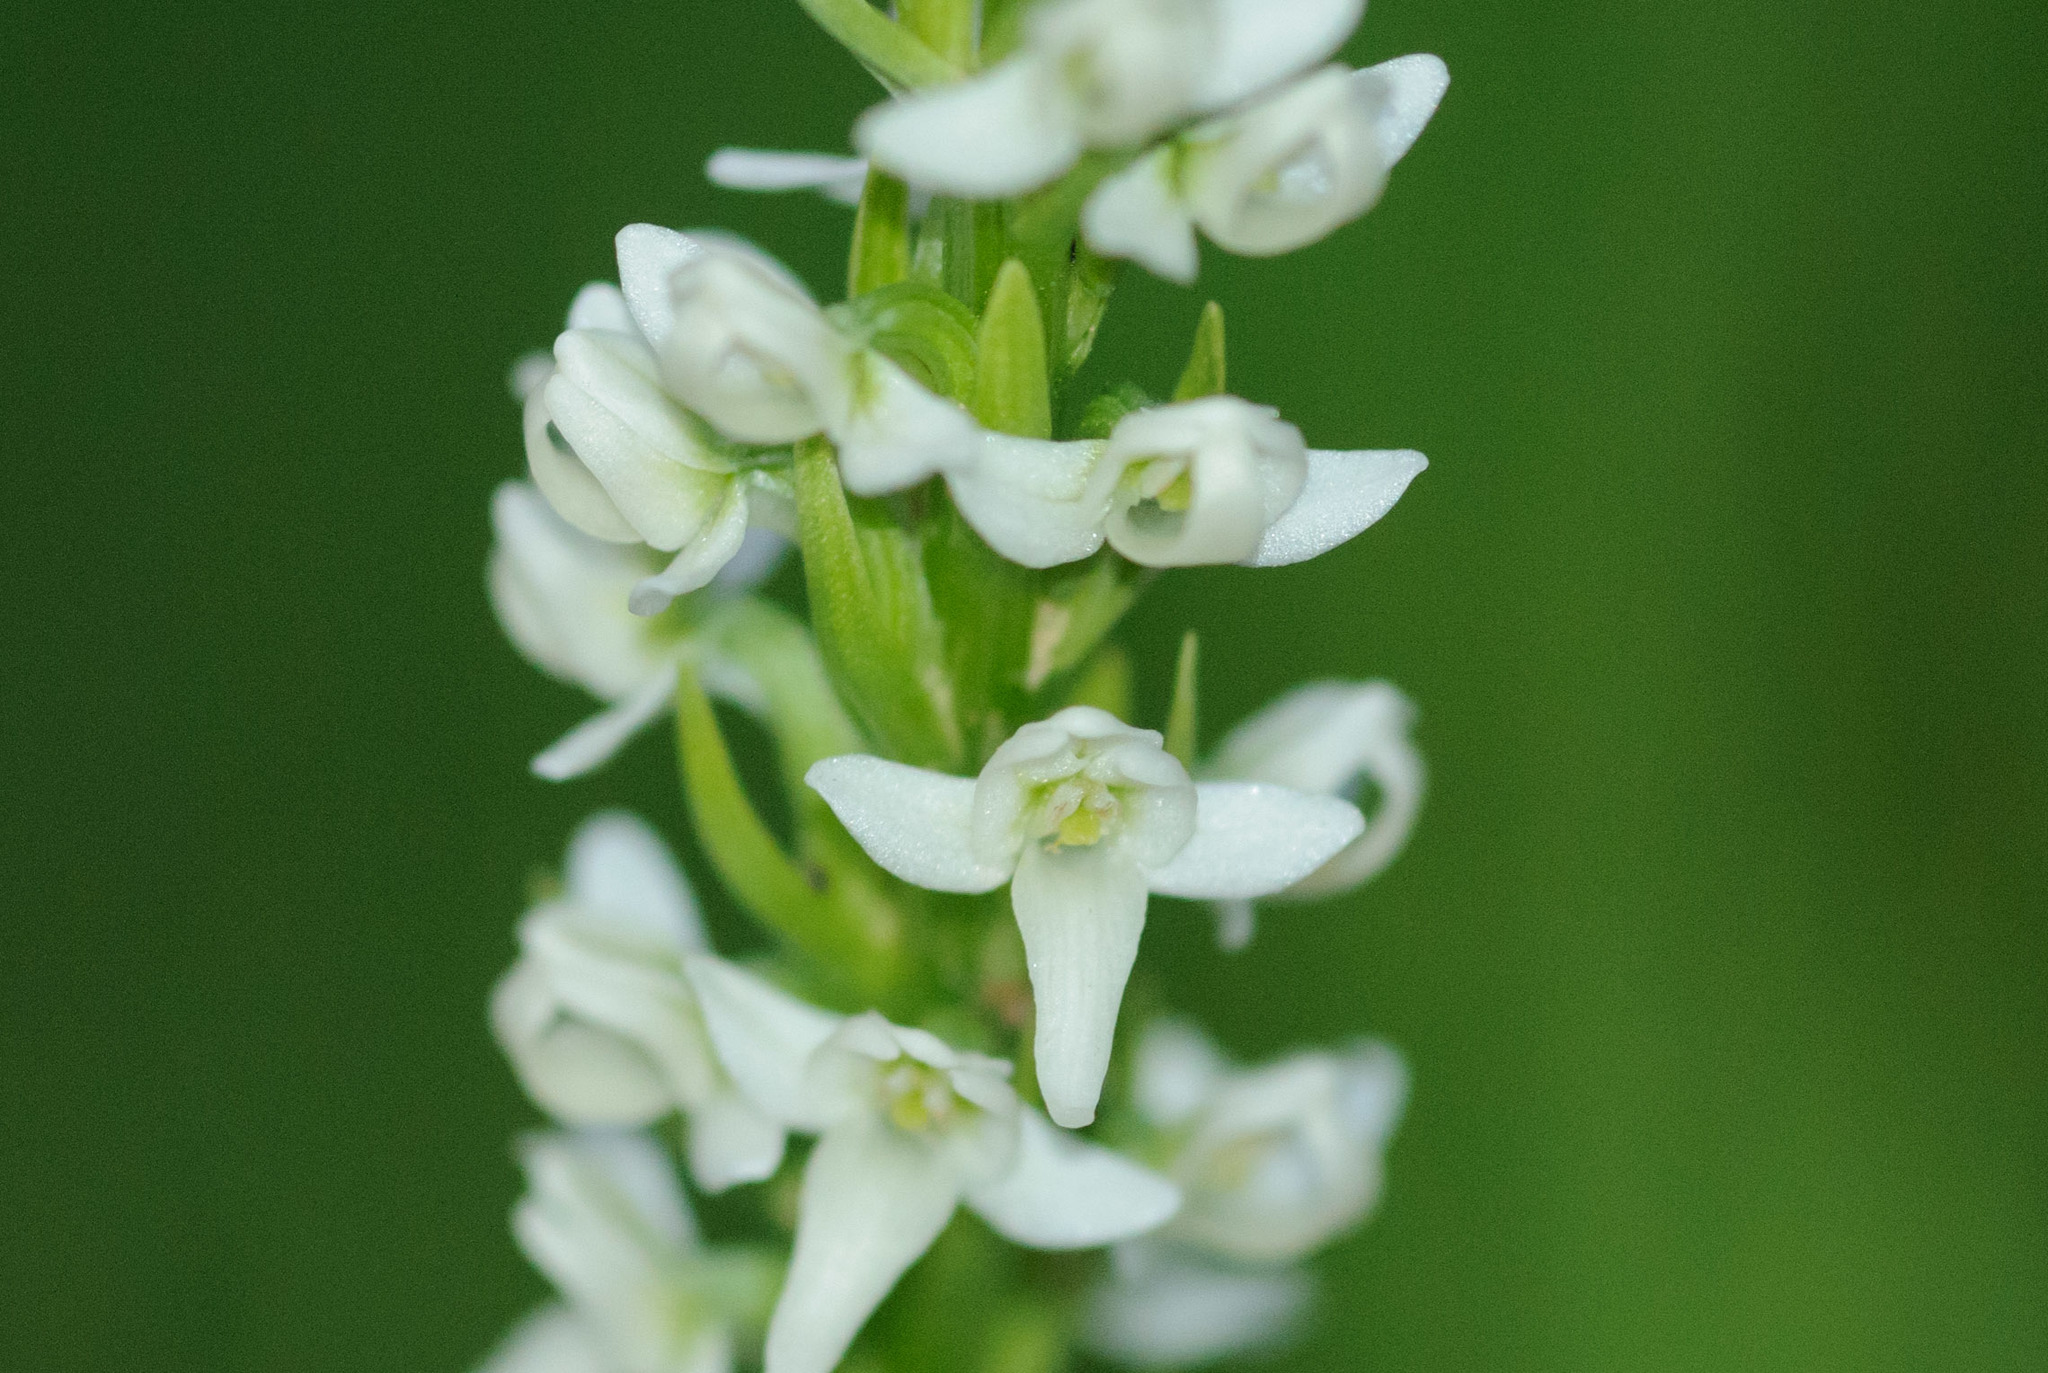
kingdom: Plantae
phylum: Tracheophyta
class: Liliopsida
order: Asparagales
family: Orchidaceae
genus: Platanthera
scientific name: Platanthera dilatata
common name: Bog candles
